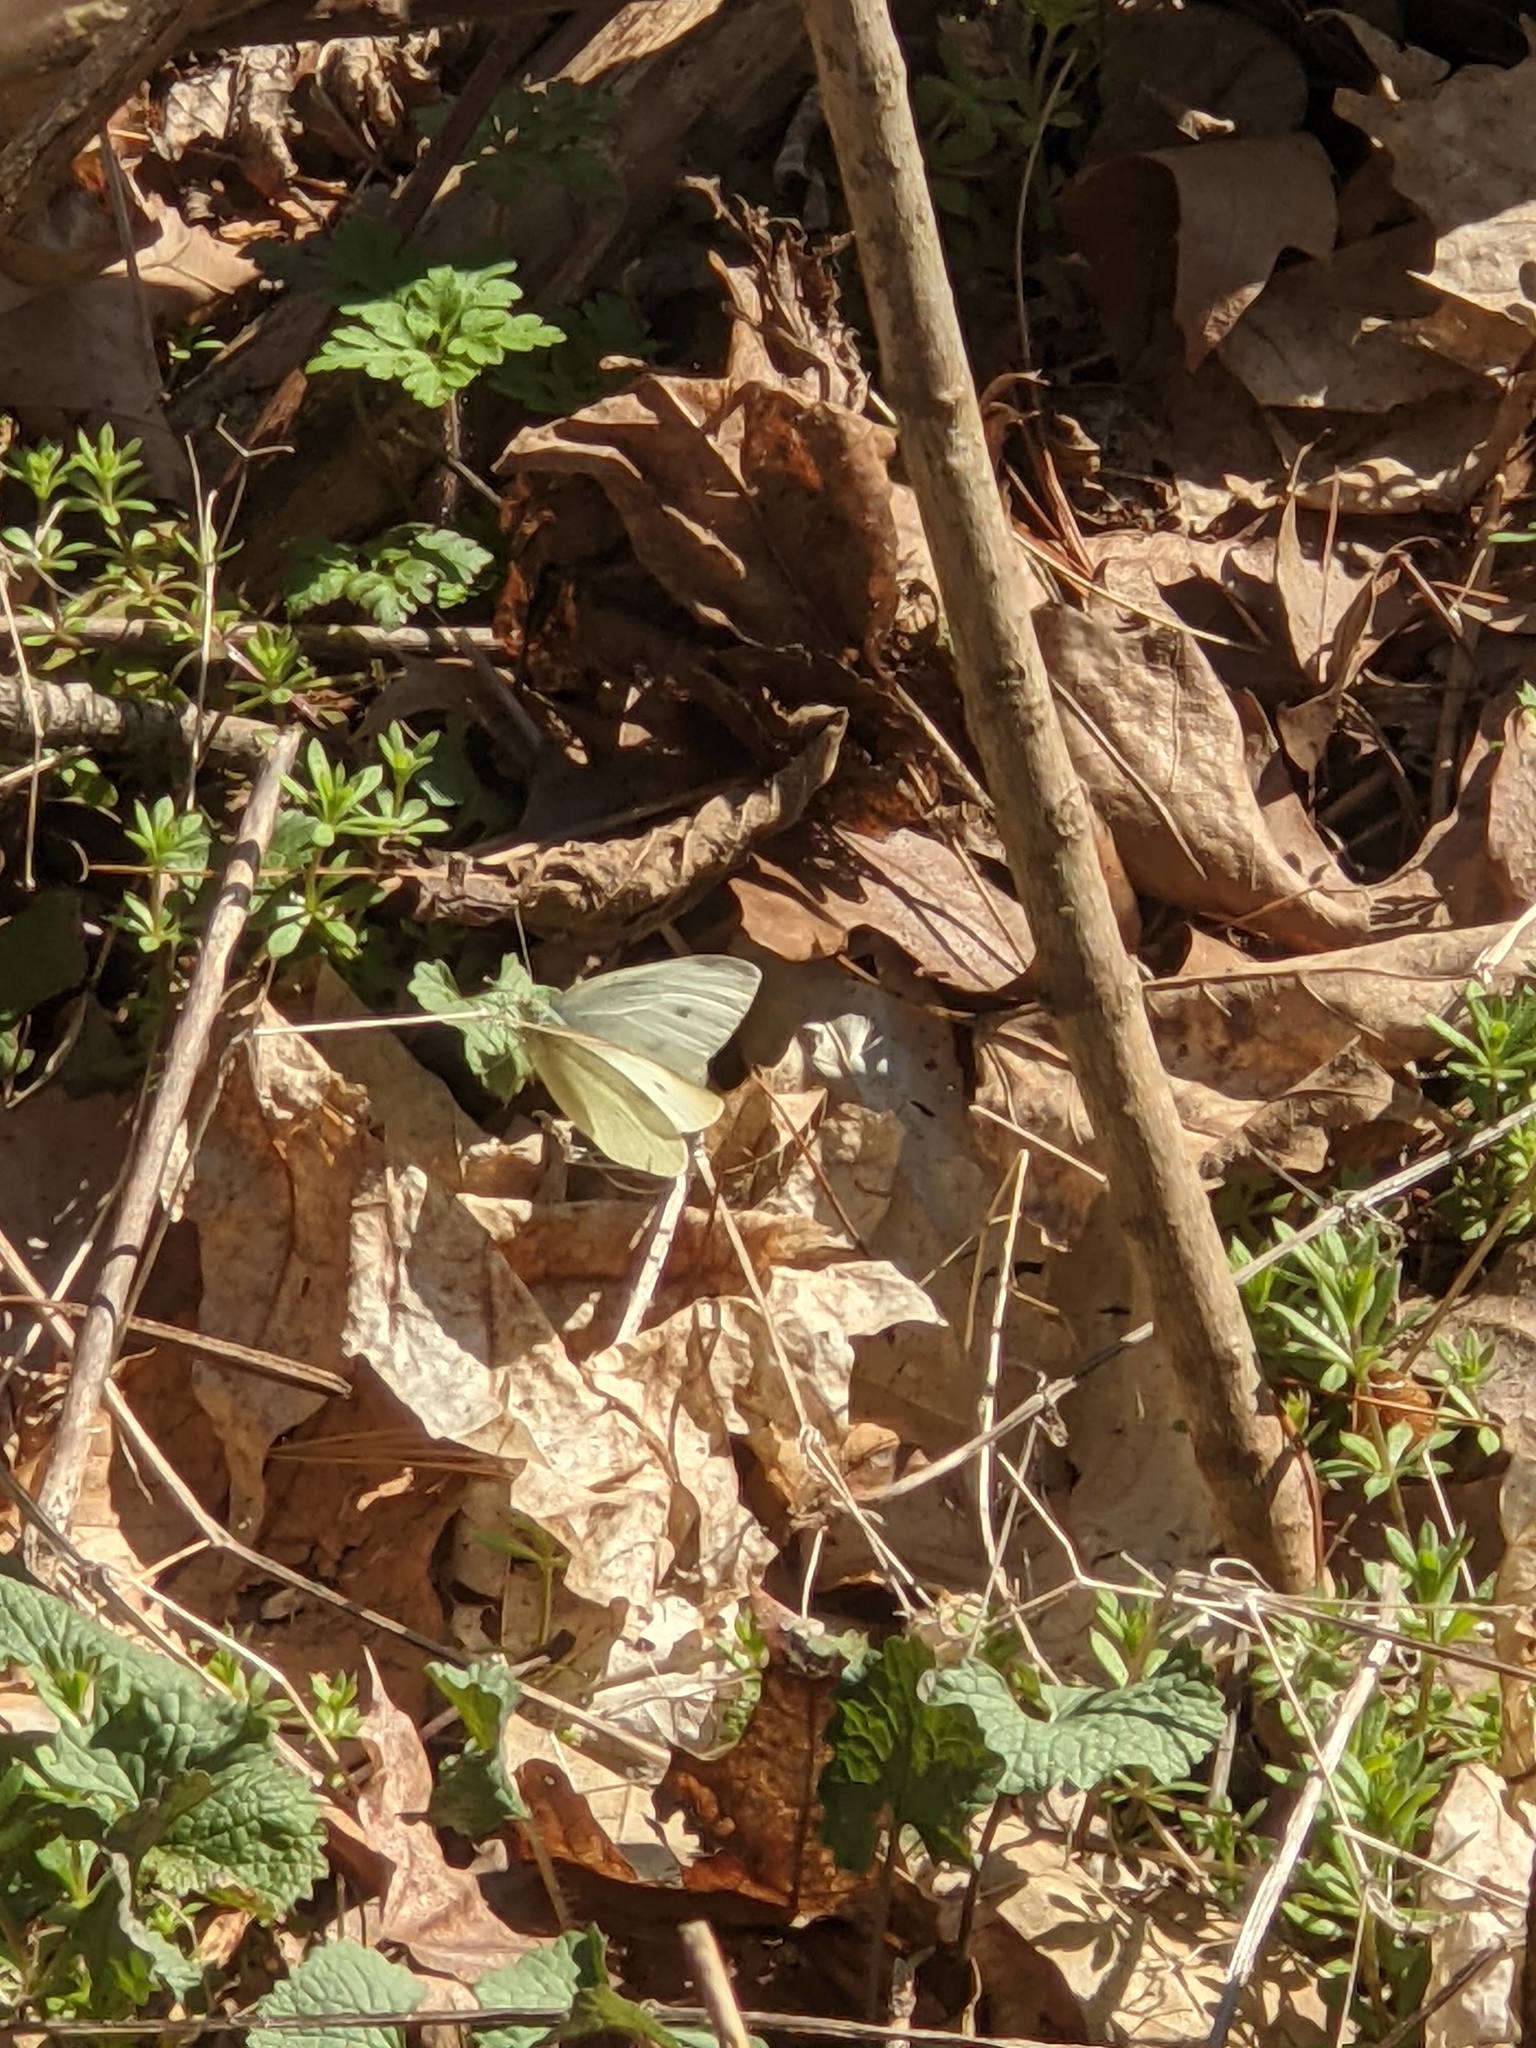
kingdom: Animalia
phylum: Arthropoda
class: Insecta
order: Lepidoptera
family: Pieridae
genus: Pieris
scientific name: Pieris rapae
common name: Small white
